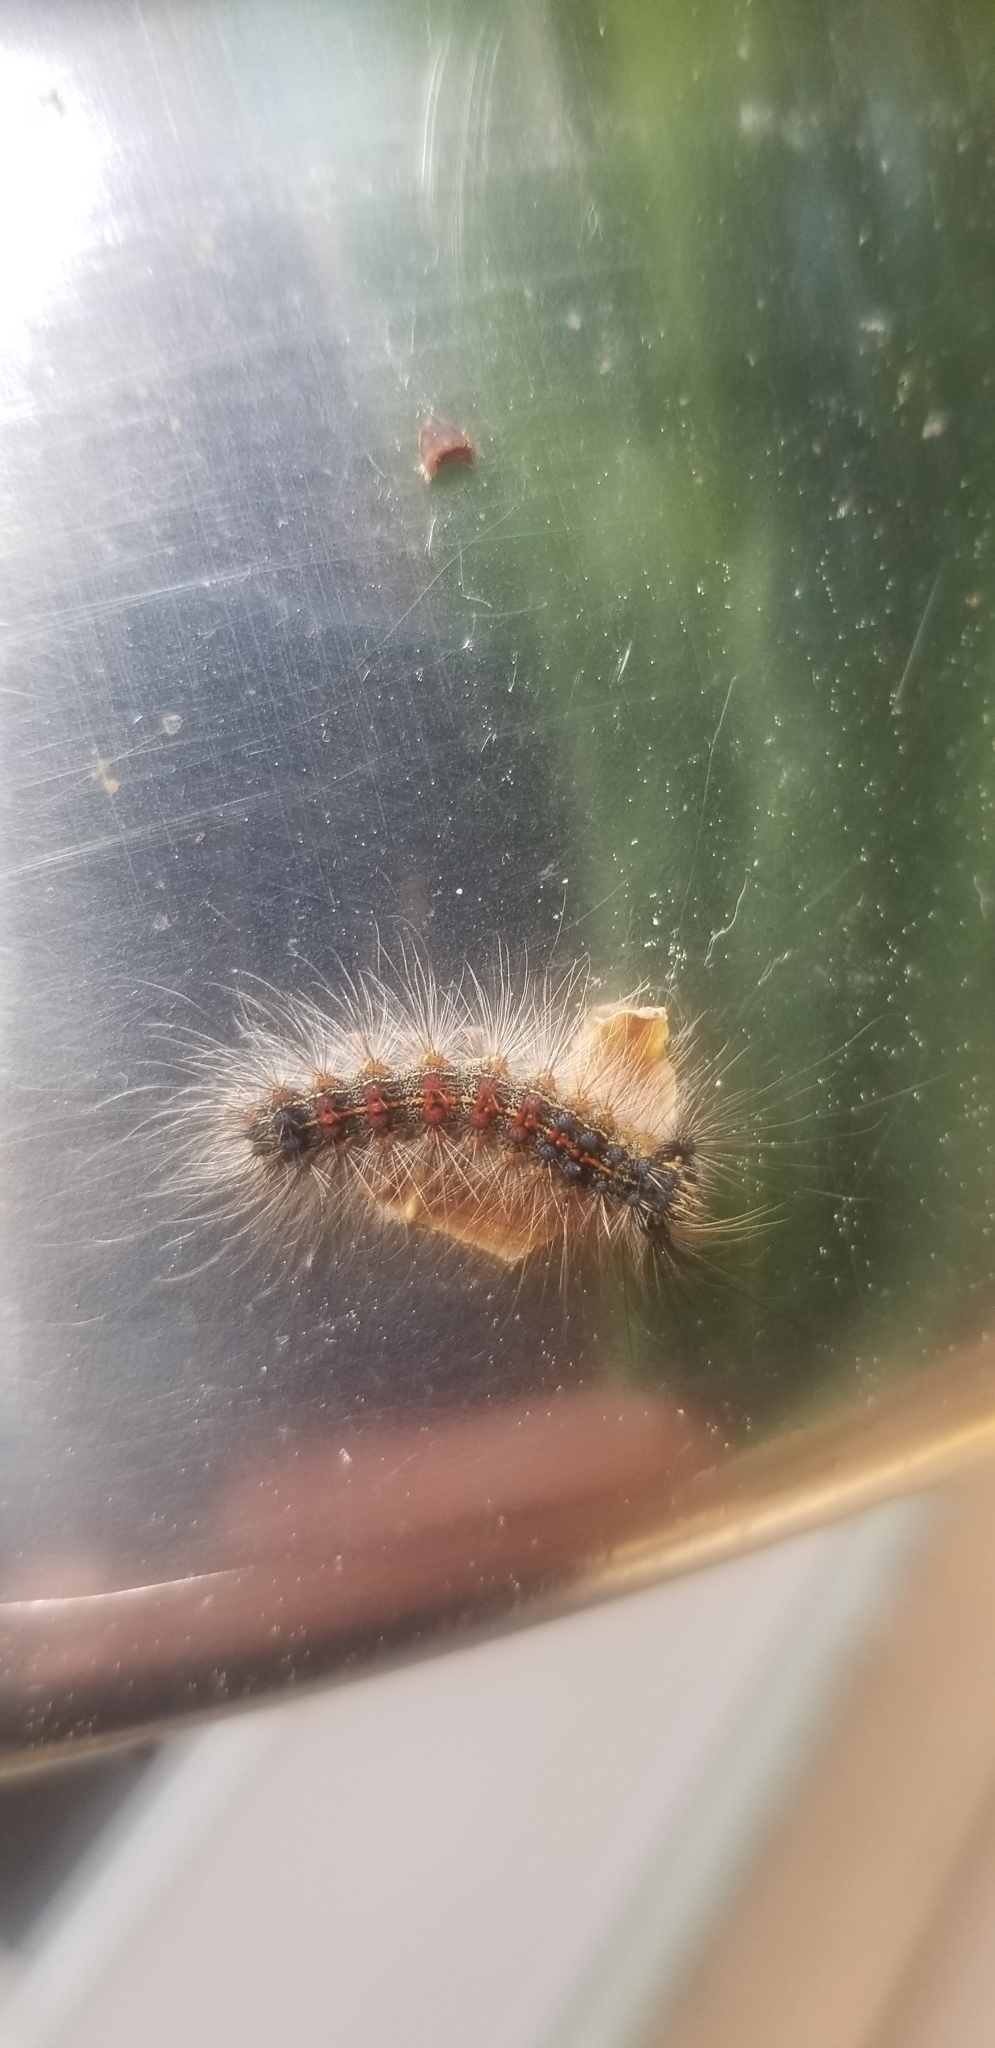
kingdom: Animalia
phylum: Arthropoda
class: Insecta
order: Lepidoptera
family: Erebidae
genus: Lymantria
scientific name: Lymantria dispar
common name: Gypsy moth
